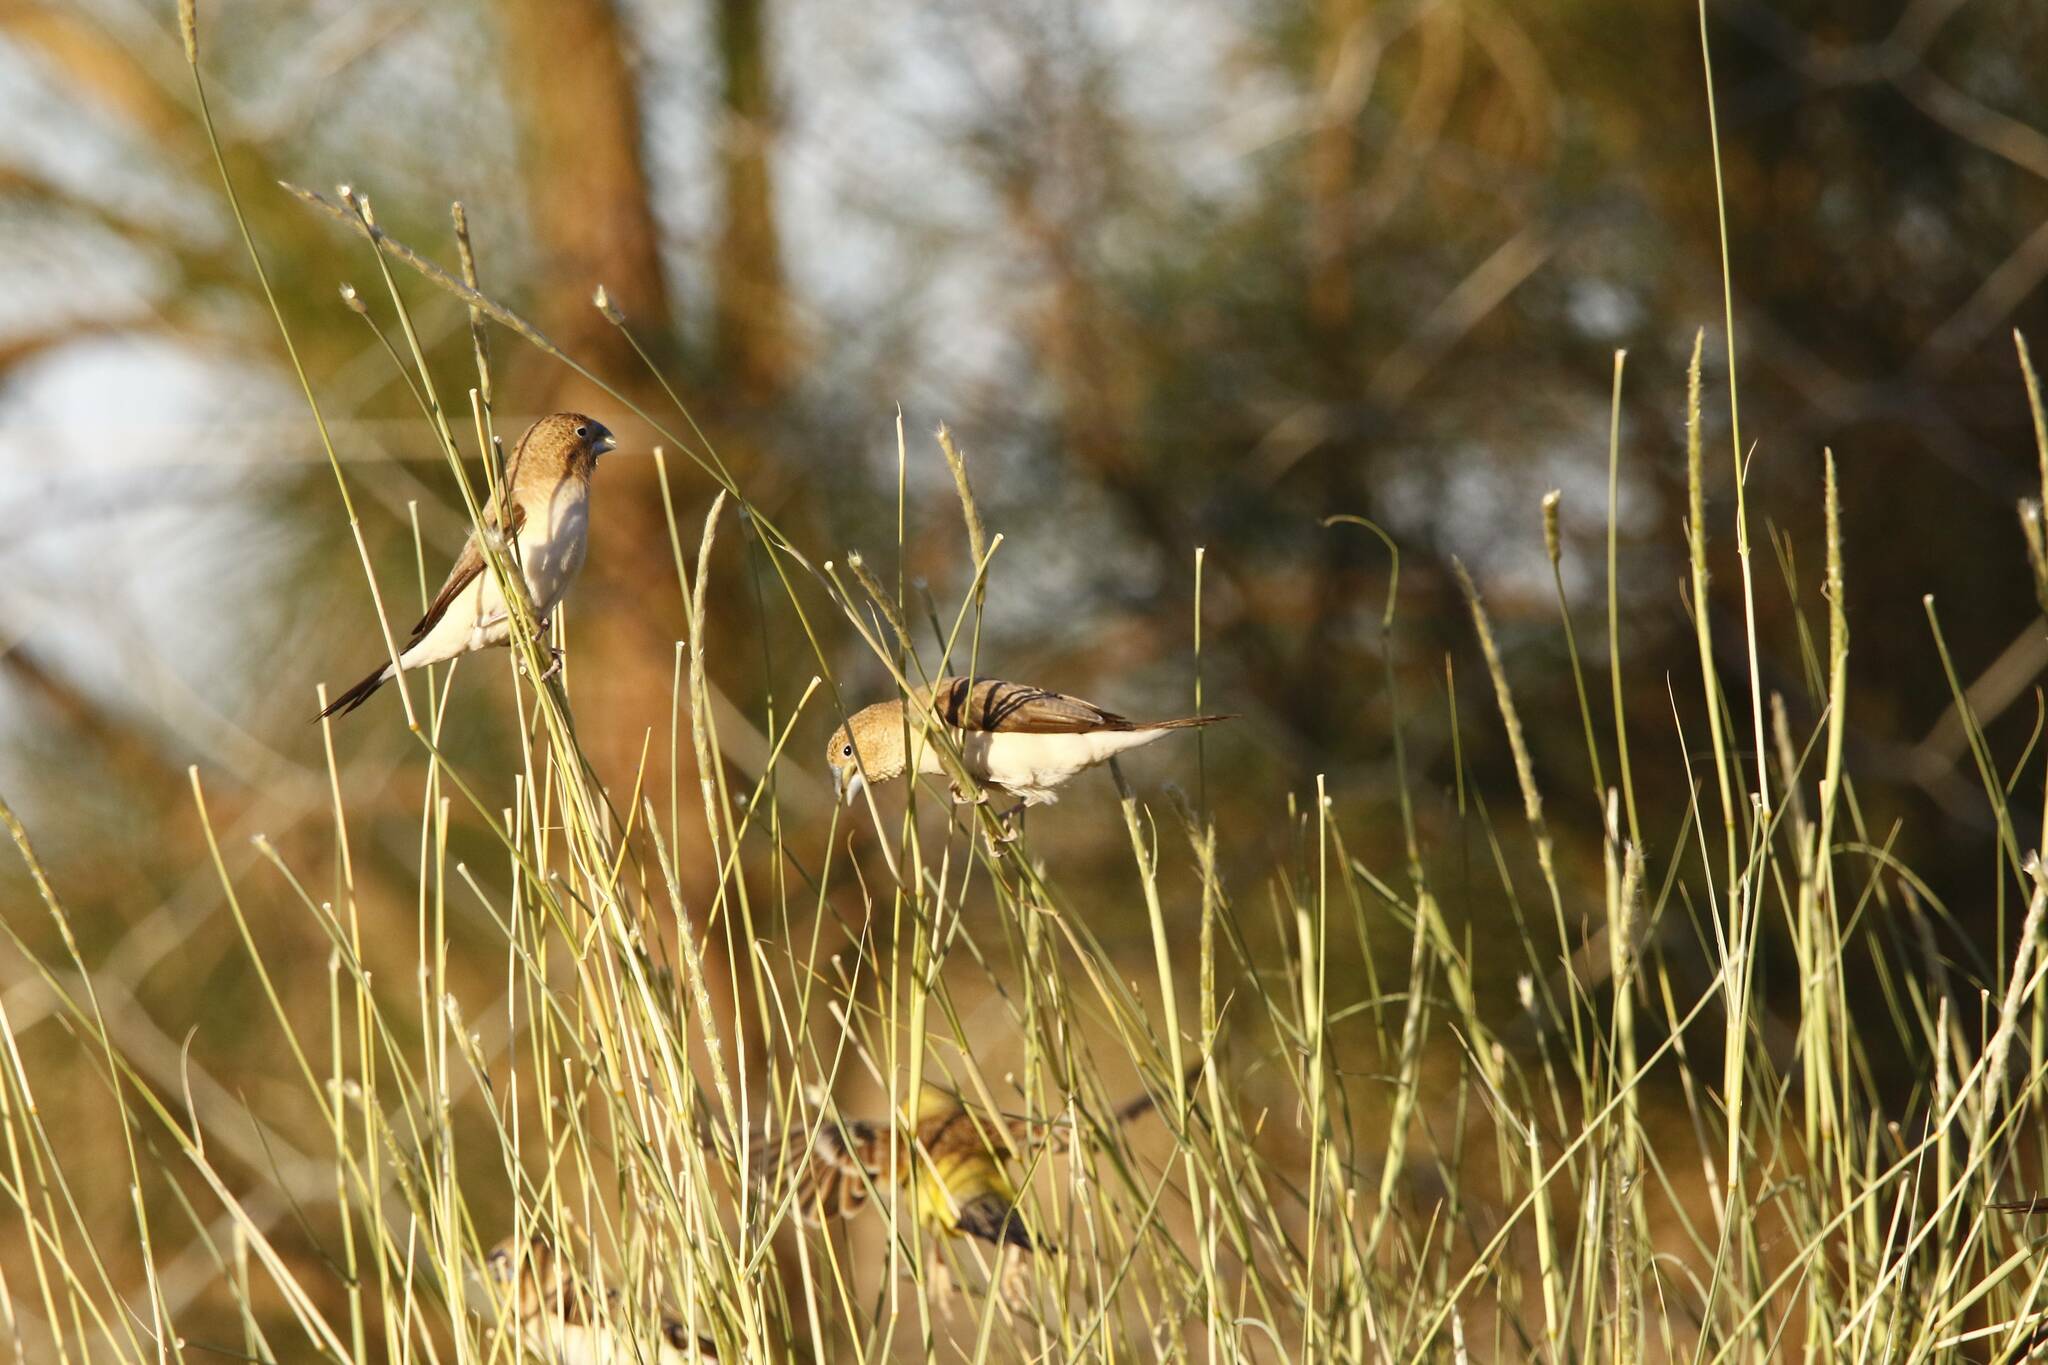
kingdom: Animalia
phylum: Chordata
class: Aves
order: Passeriformes
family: Estrildidae
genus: Euodice
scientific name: Euodice cantans
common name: African silverbill
